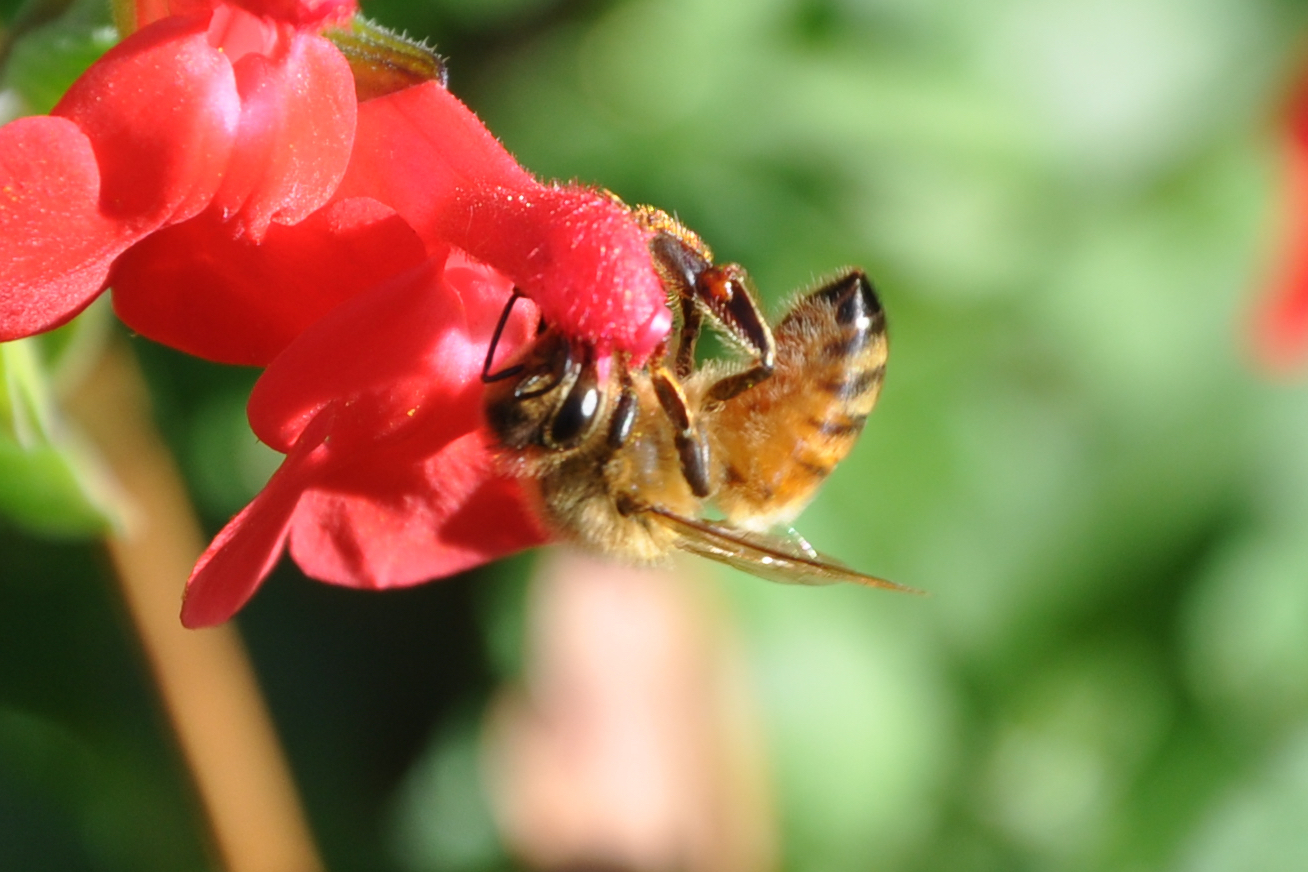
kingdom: Animalia
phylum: Arthropoda
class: Insecta
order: Hymenoptera
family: Apidae
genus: Apis
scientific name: Apis mellifera
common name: Honey bee
